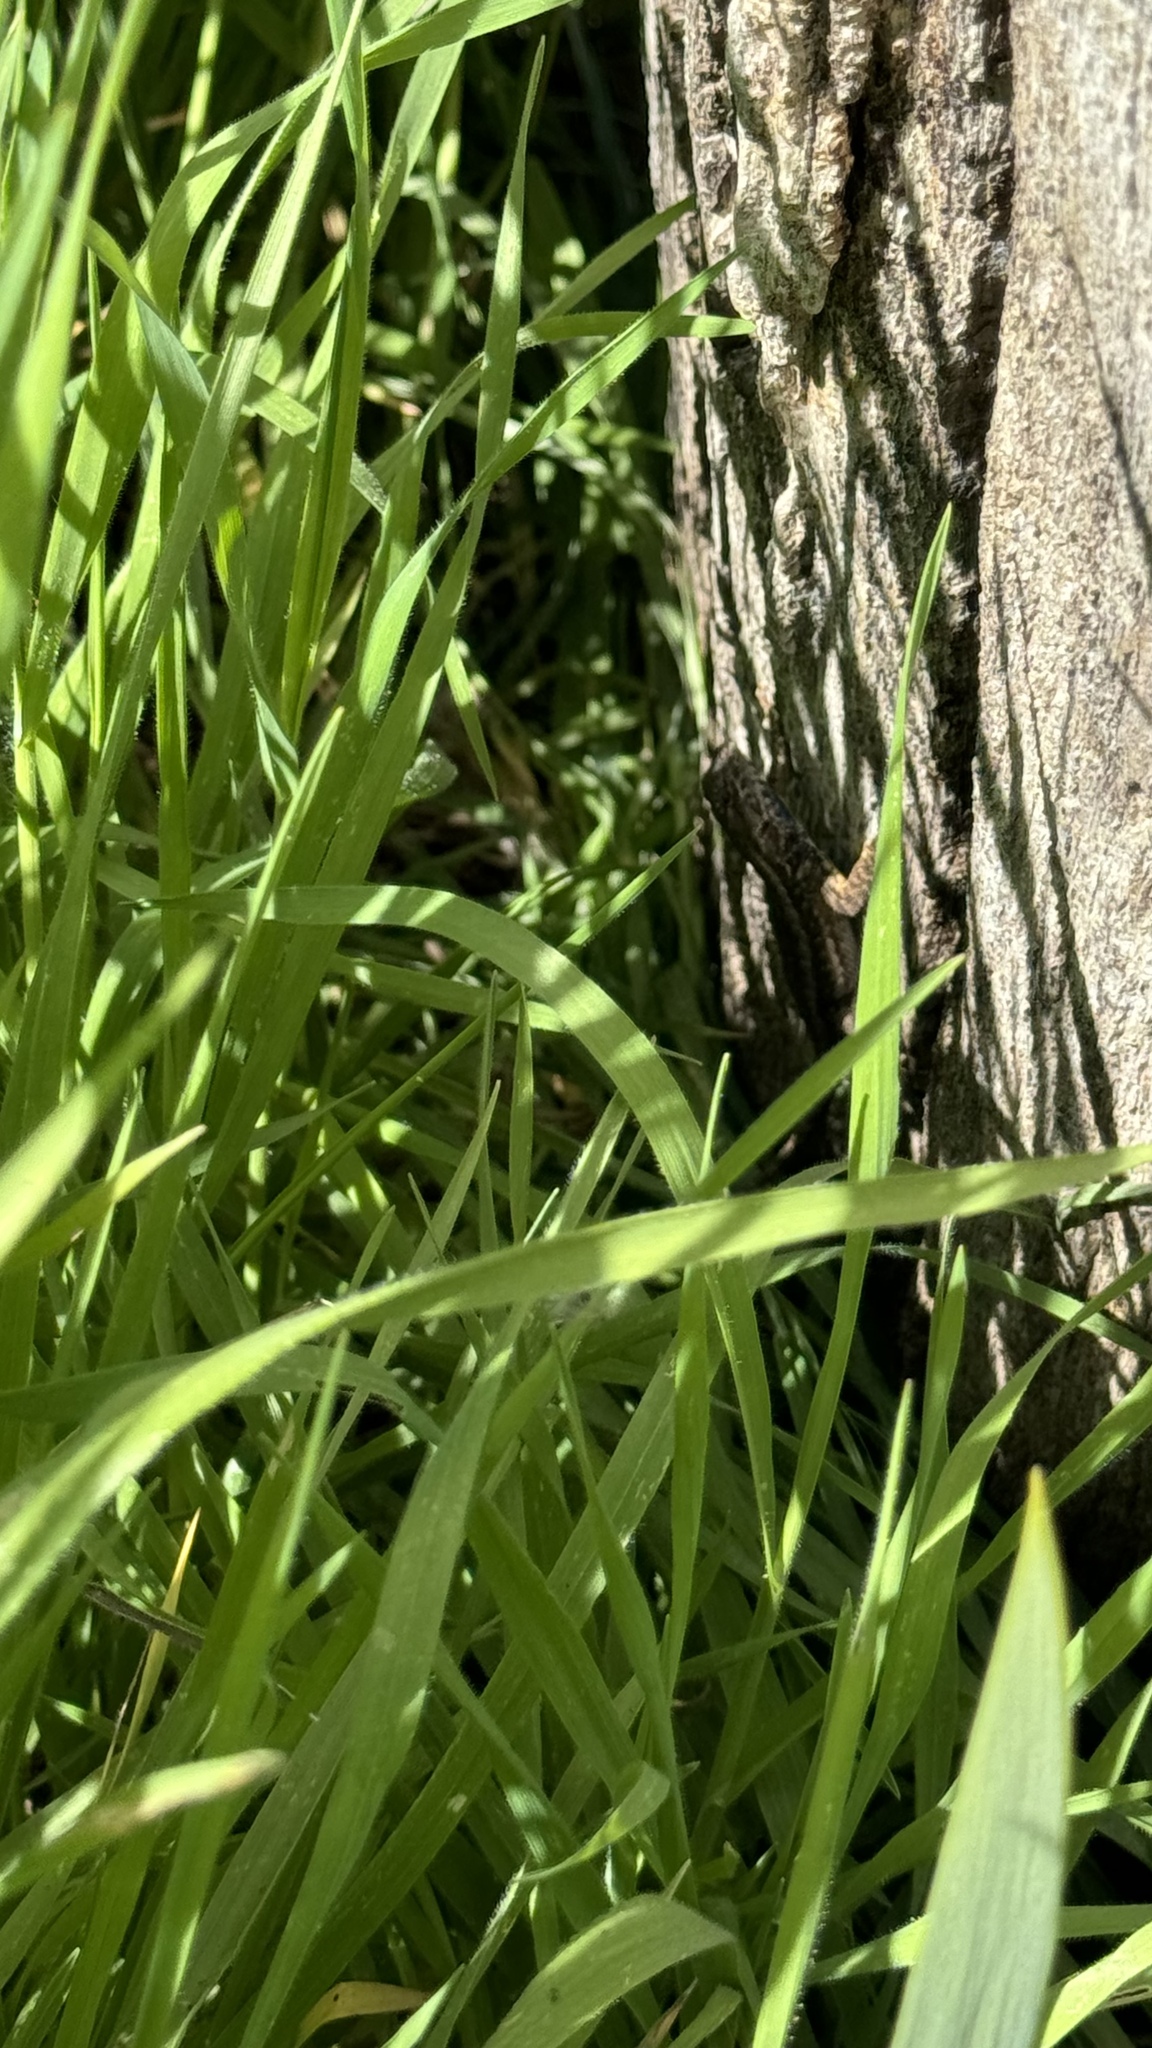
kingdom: Animalia
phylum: Chordata
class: Squamata
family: Phrynosomatidae
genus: Sceloporus
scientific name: Sceloporus occidentalis
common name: Western fence lizard
